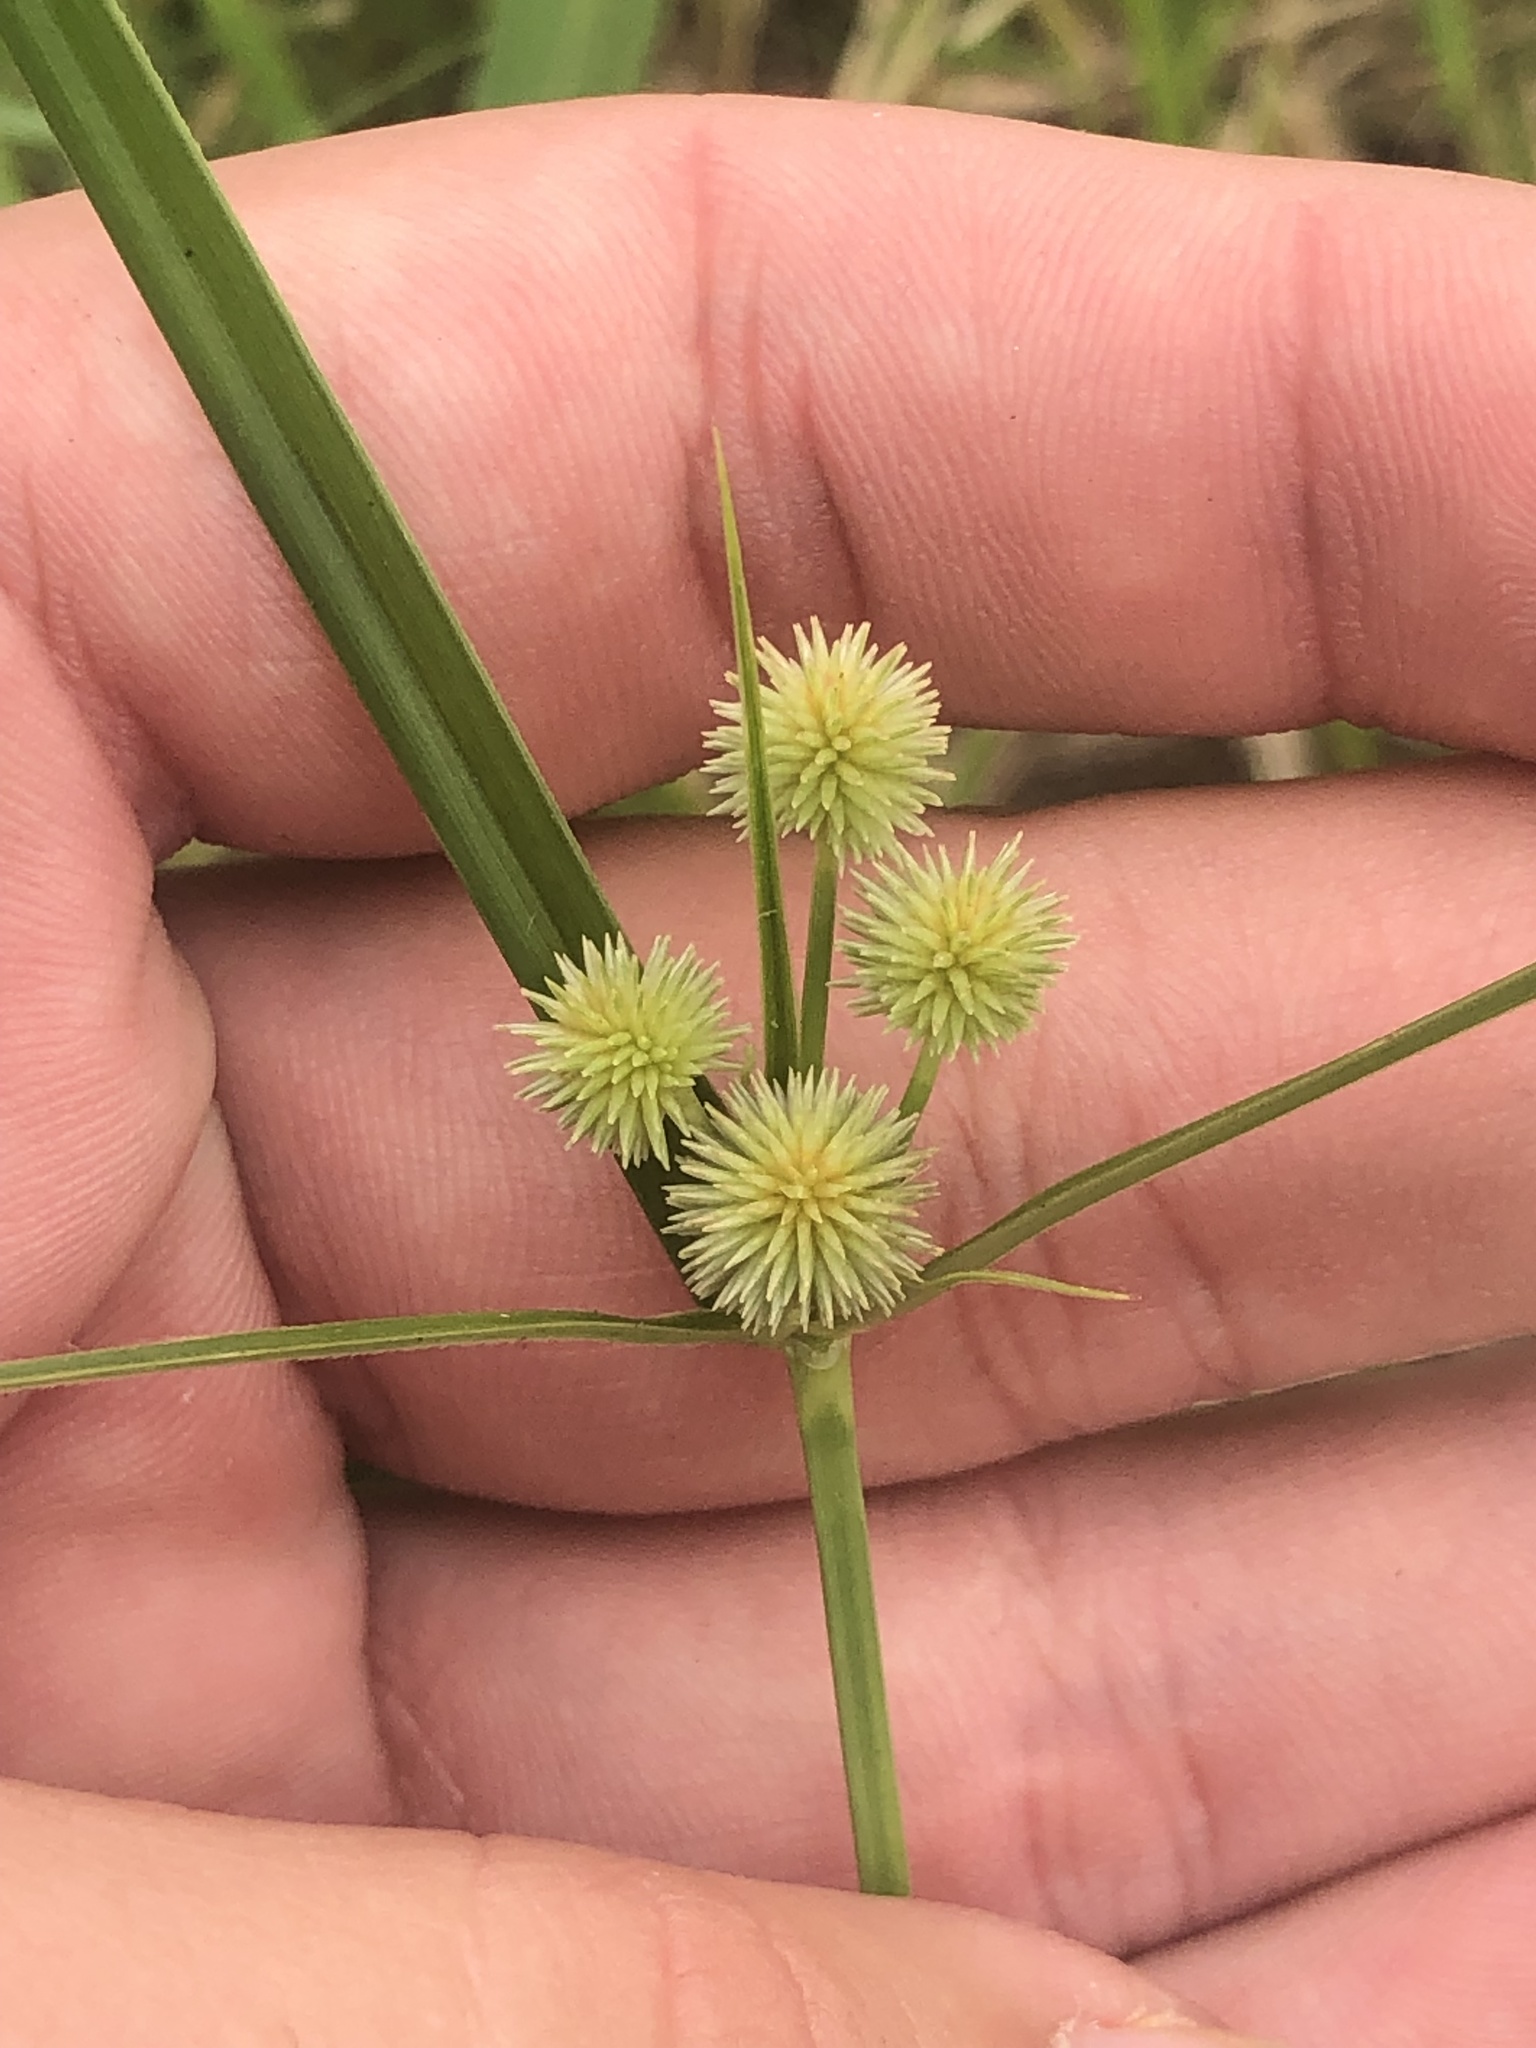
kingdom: Plantae
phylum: Tracheophyta
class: Liliopsida
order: Poales
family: Cyperaceae
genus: Cyperus
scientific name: Cyperus echinatus
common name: Teasel sedge
